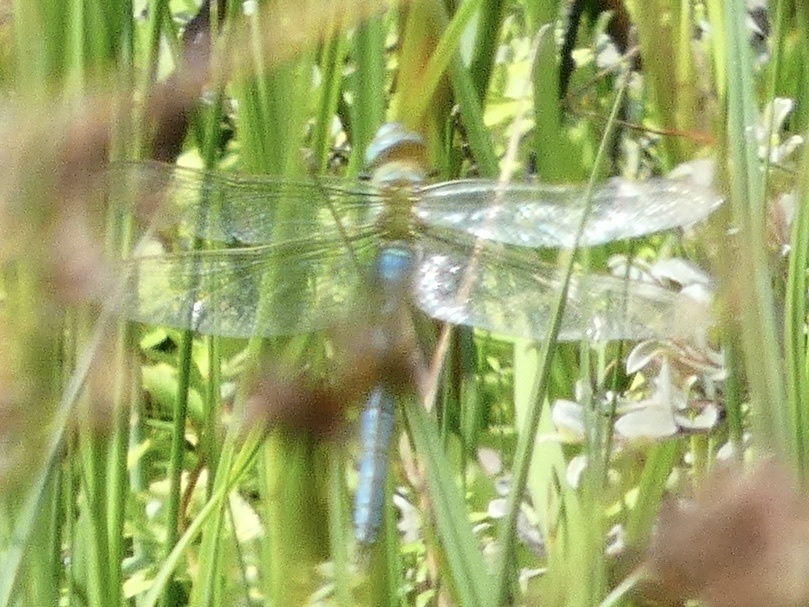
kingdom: Animalia
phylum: Arthropoda
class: Insecta
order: Odonata
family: Aeshnidae
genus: Anax
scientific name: Anax imperator
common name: Emperor dragonfly
